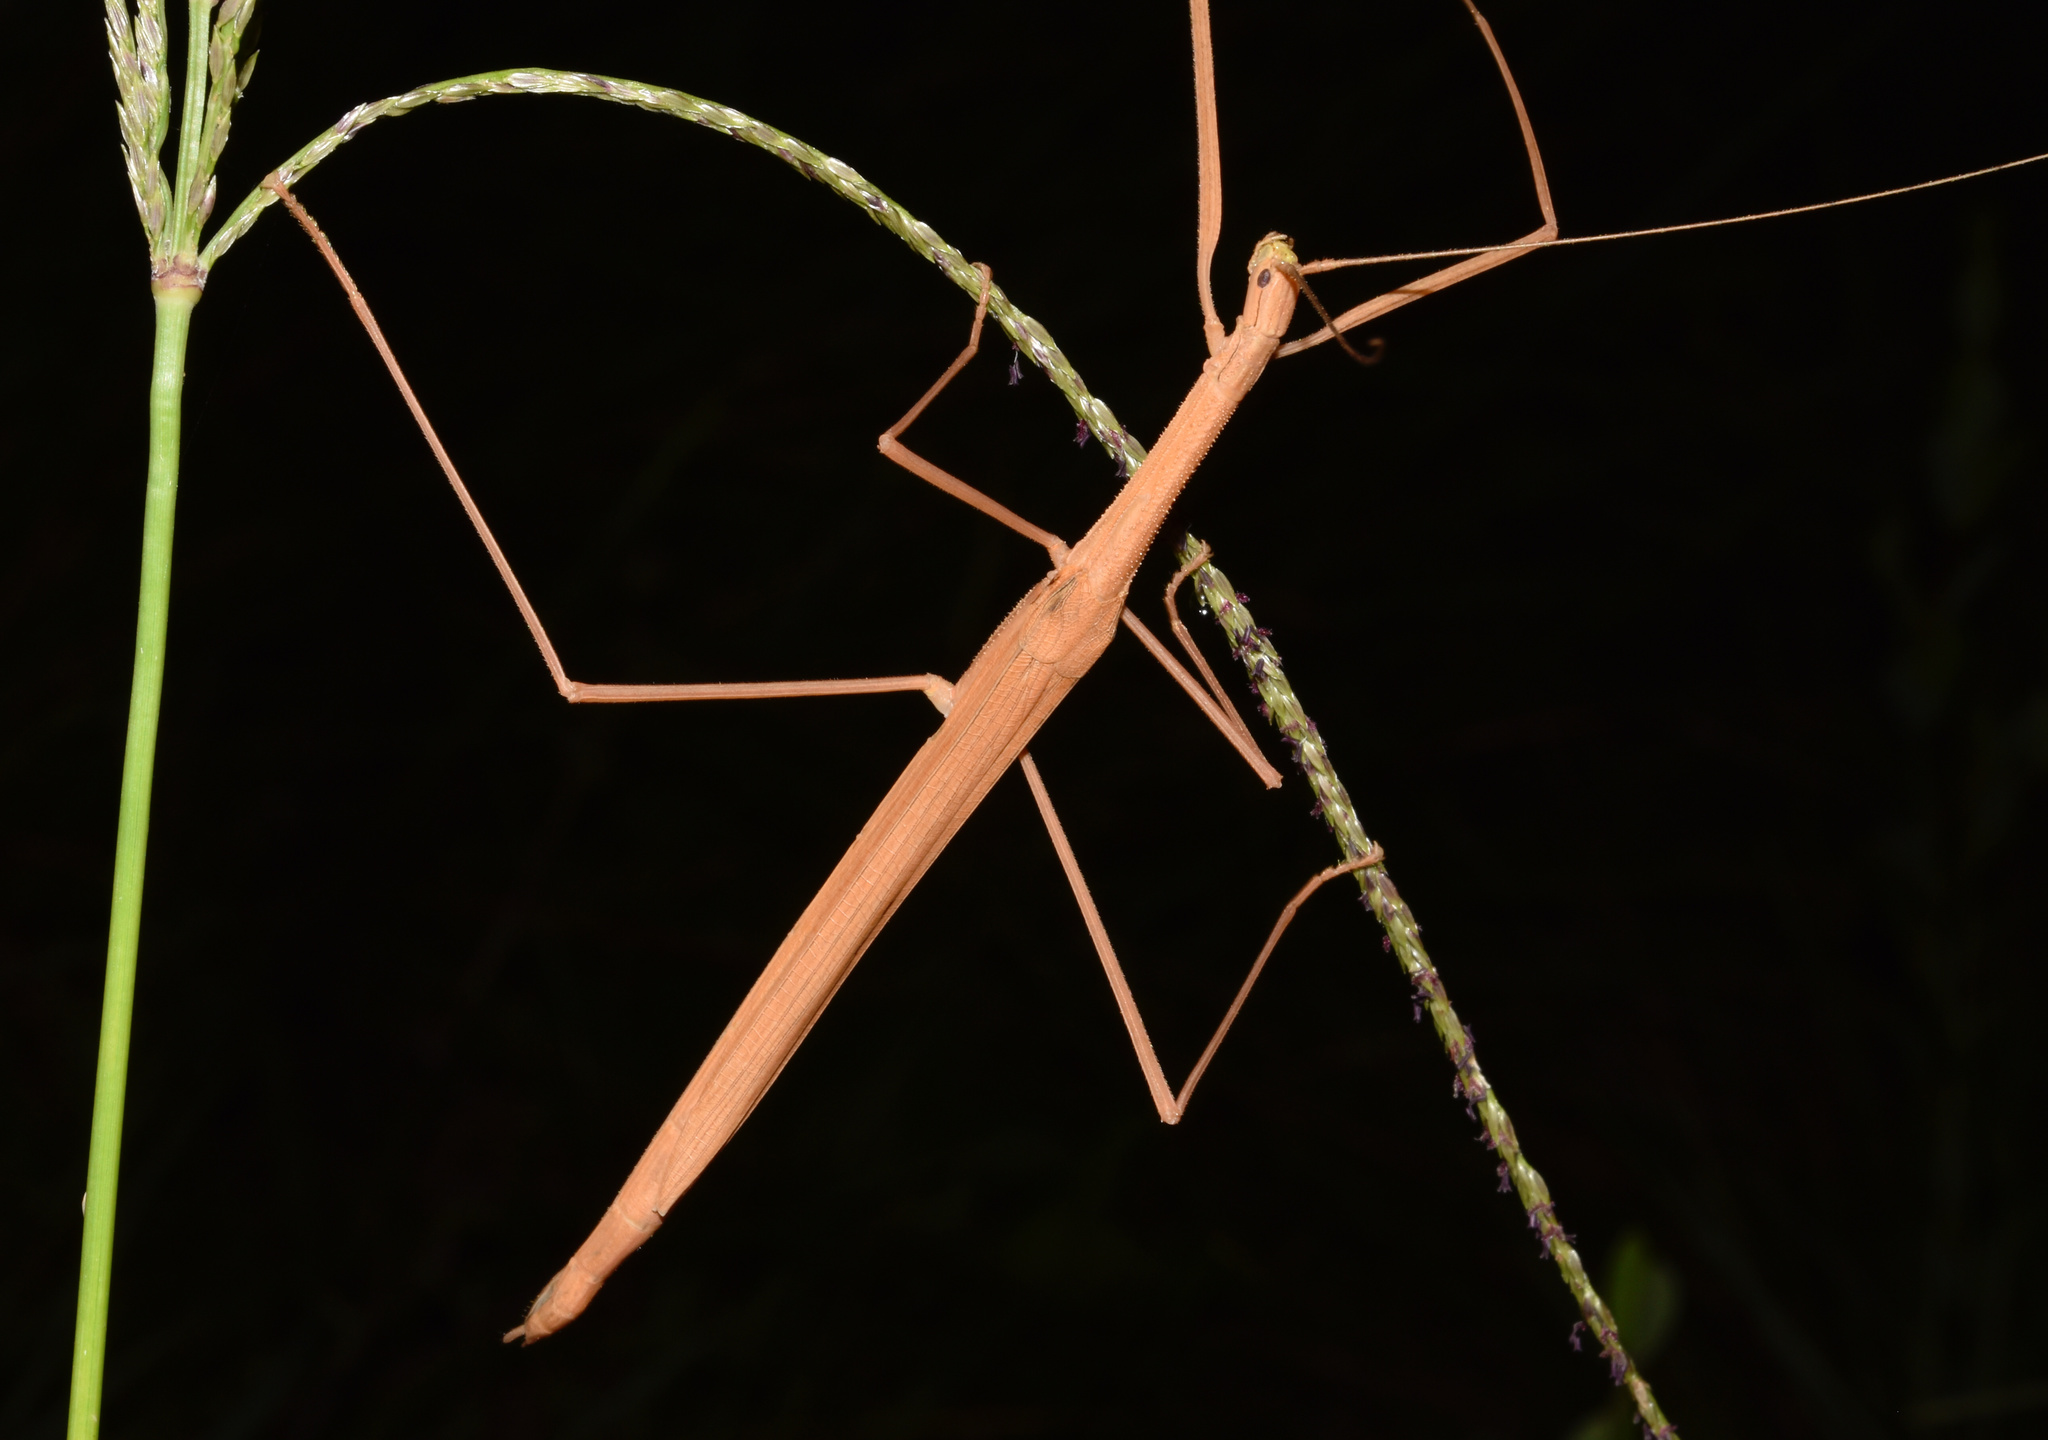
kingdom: Animalia
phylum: Arthropoda
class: Insecta
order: Phasmida
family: Lonchodidae
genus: Sipyloidea
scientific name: Sipyloidea sipylus
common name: Madagascan stick insect
